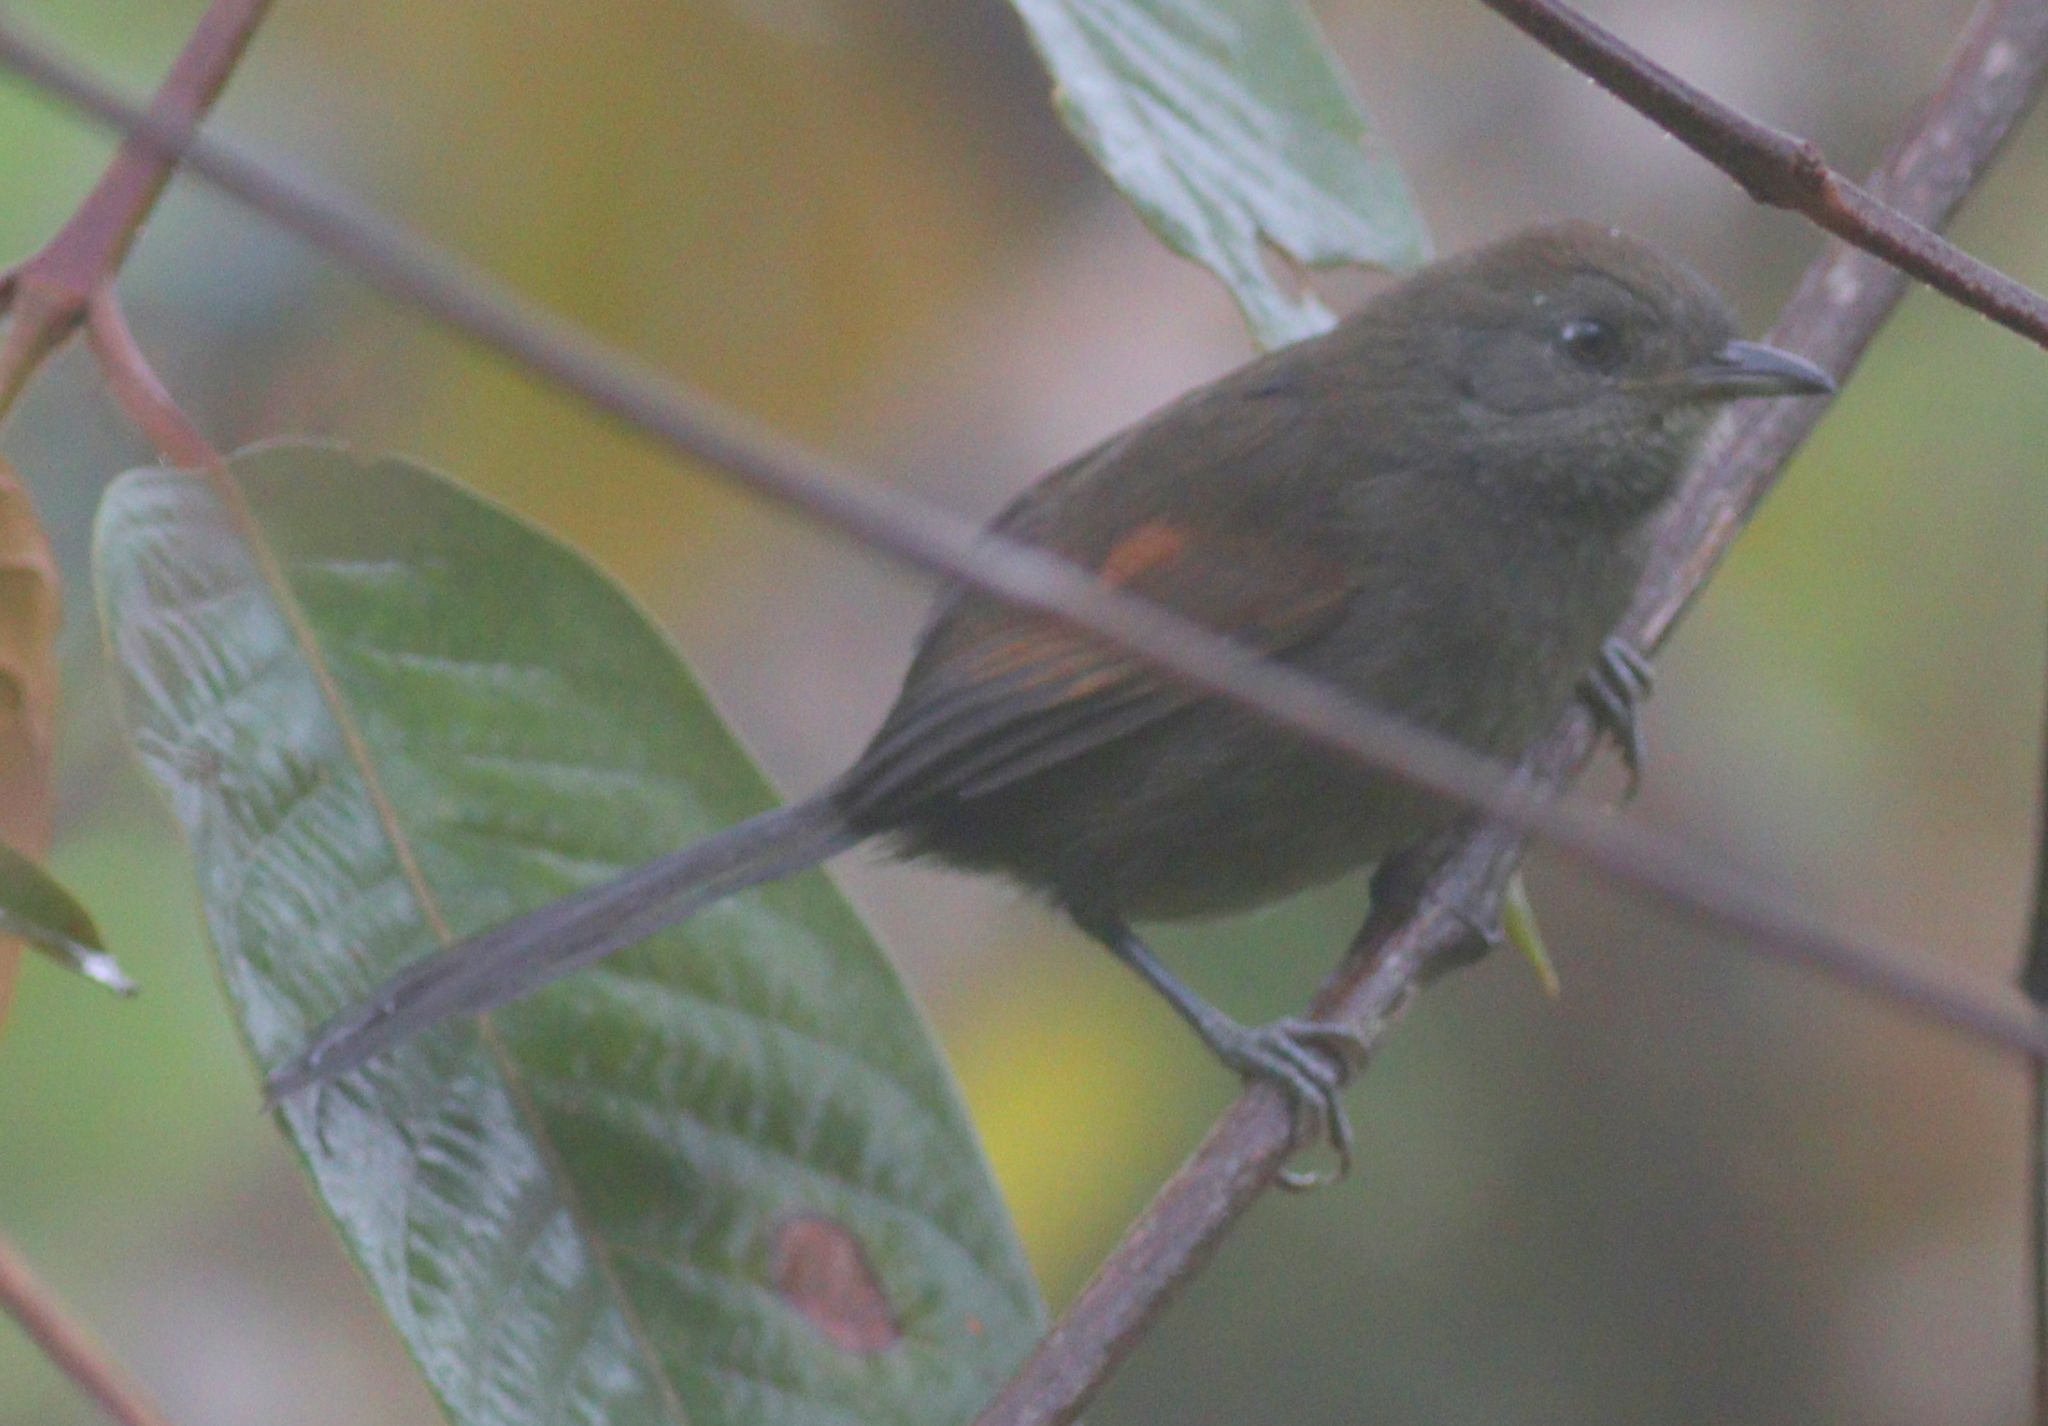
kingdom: Animalia
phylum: Chordata
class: Aves
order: Passeriformes
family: Furnariidae
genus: Synallaxis
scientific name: Synallaxis brachyura
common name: Slaty spinetail
